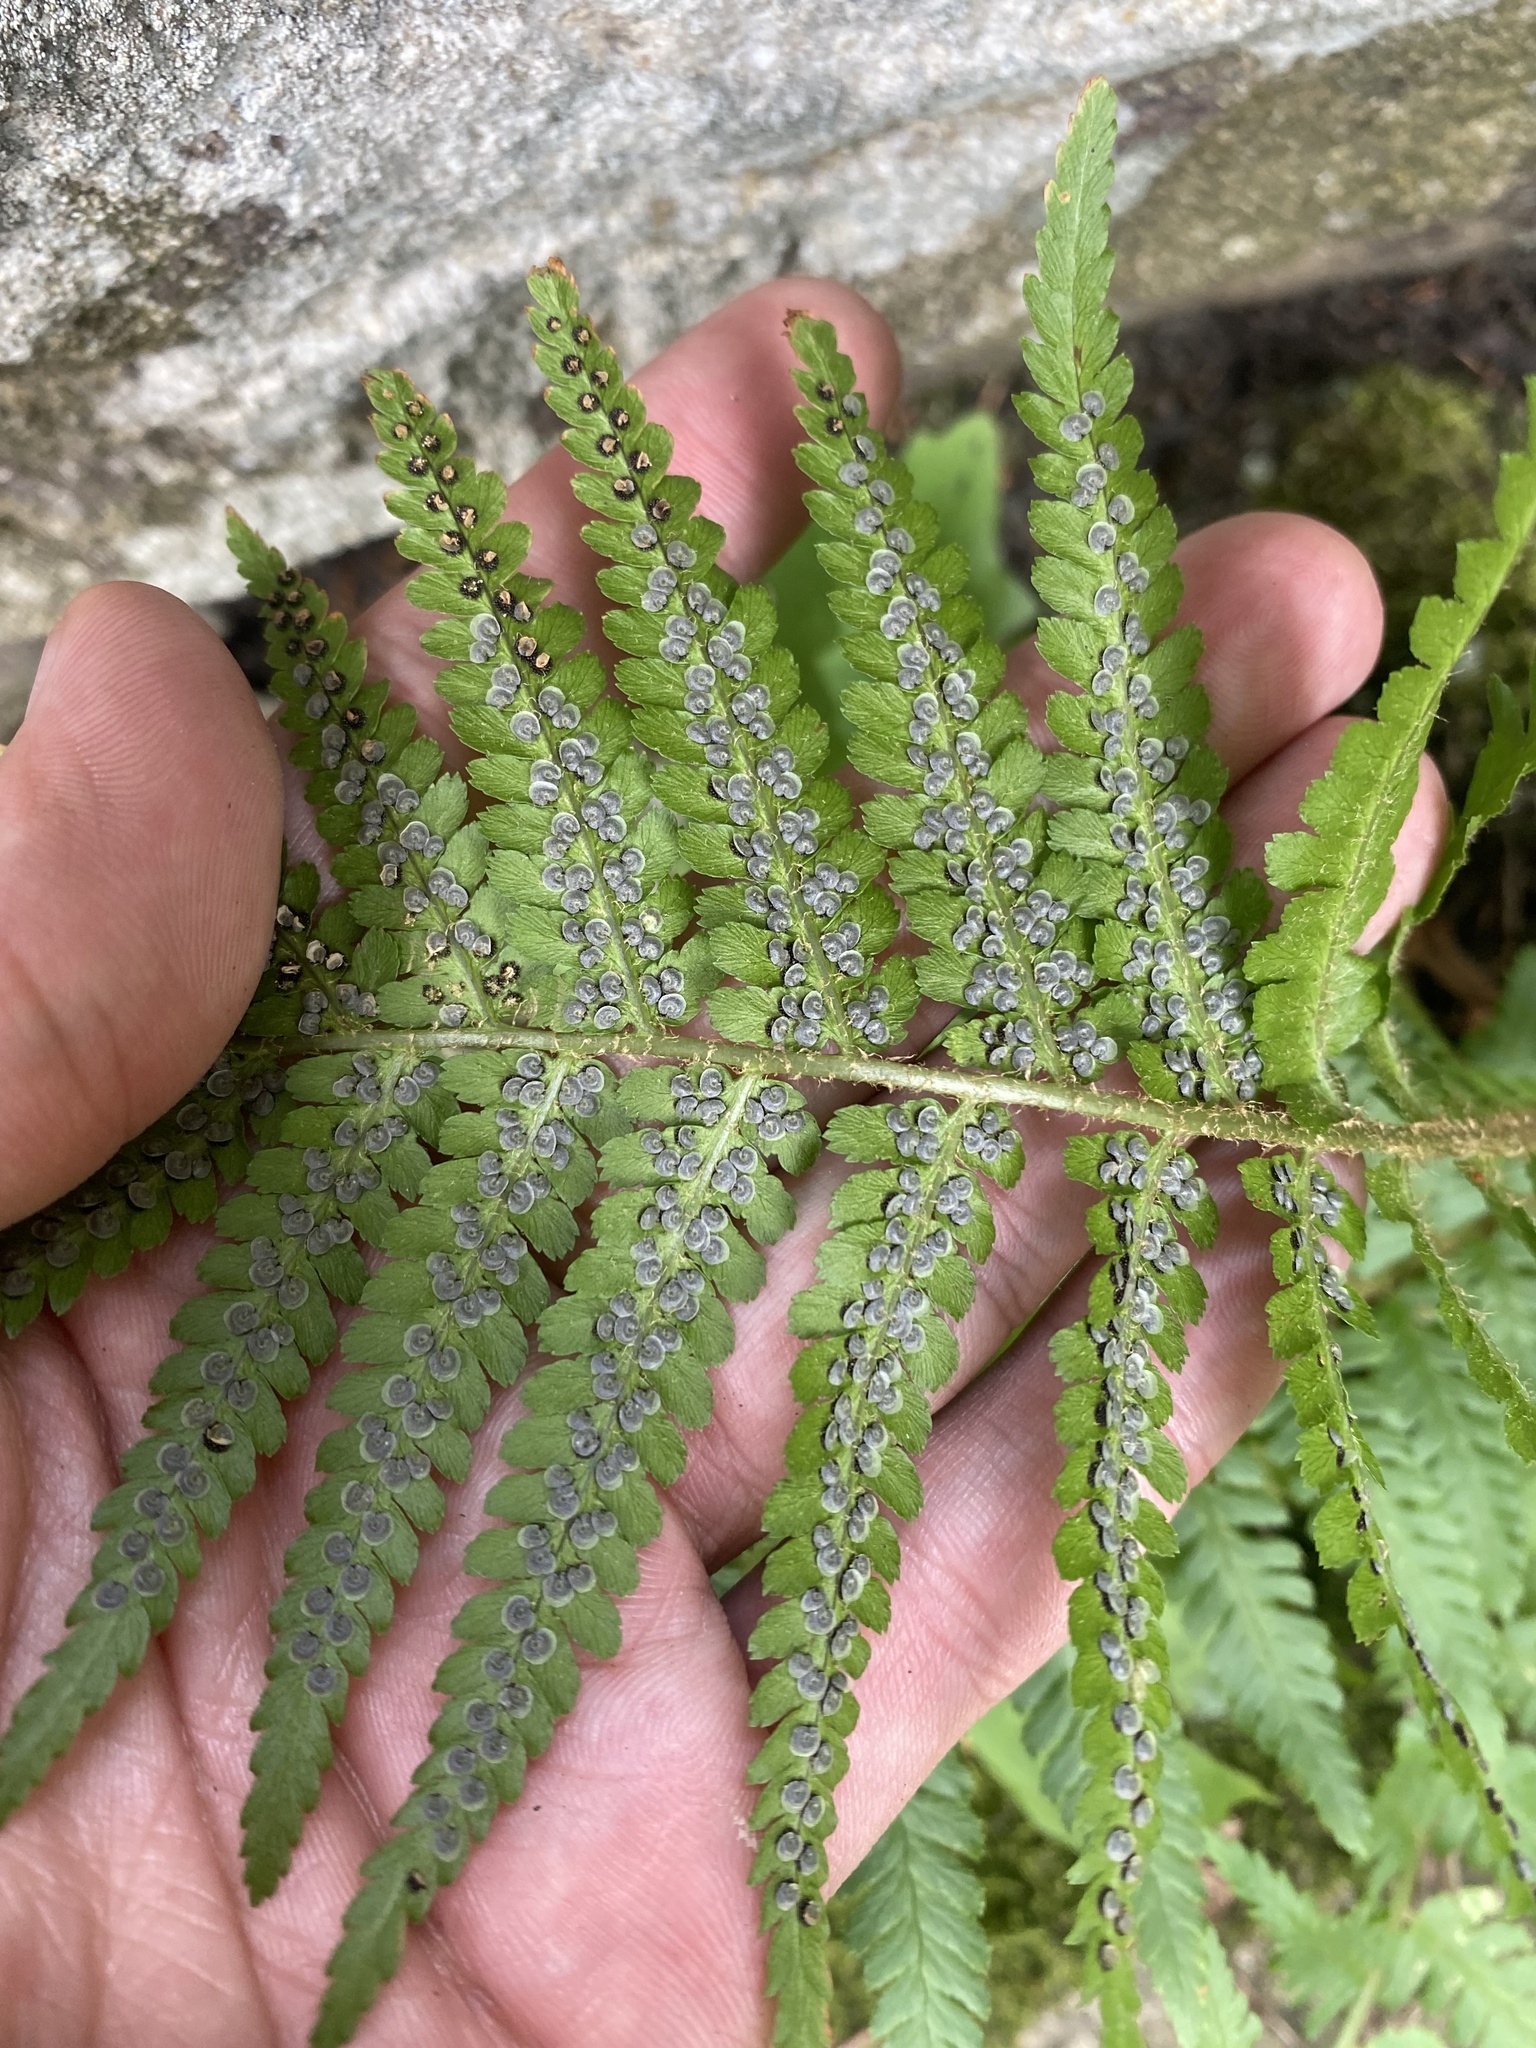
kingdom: Plantae
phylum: Tracheophyta
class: Polypodiopsida
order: Polypodiales
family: Dryopteridaceae
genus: Dryopteris
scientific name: Dryopteris filix-mas
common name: Male fern
